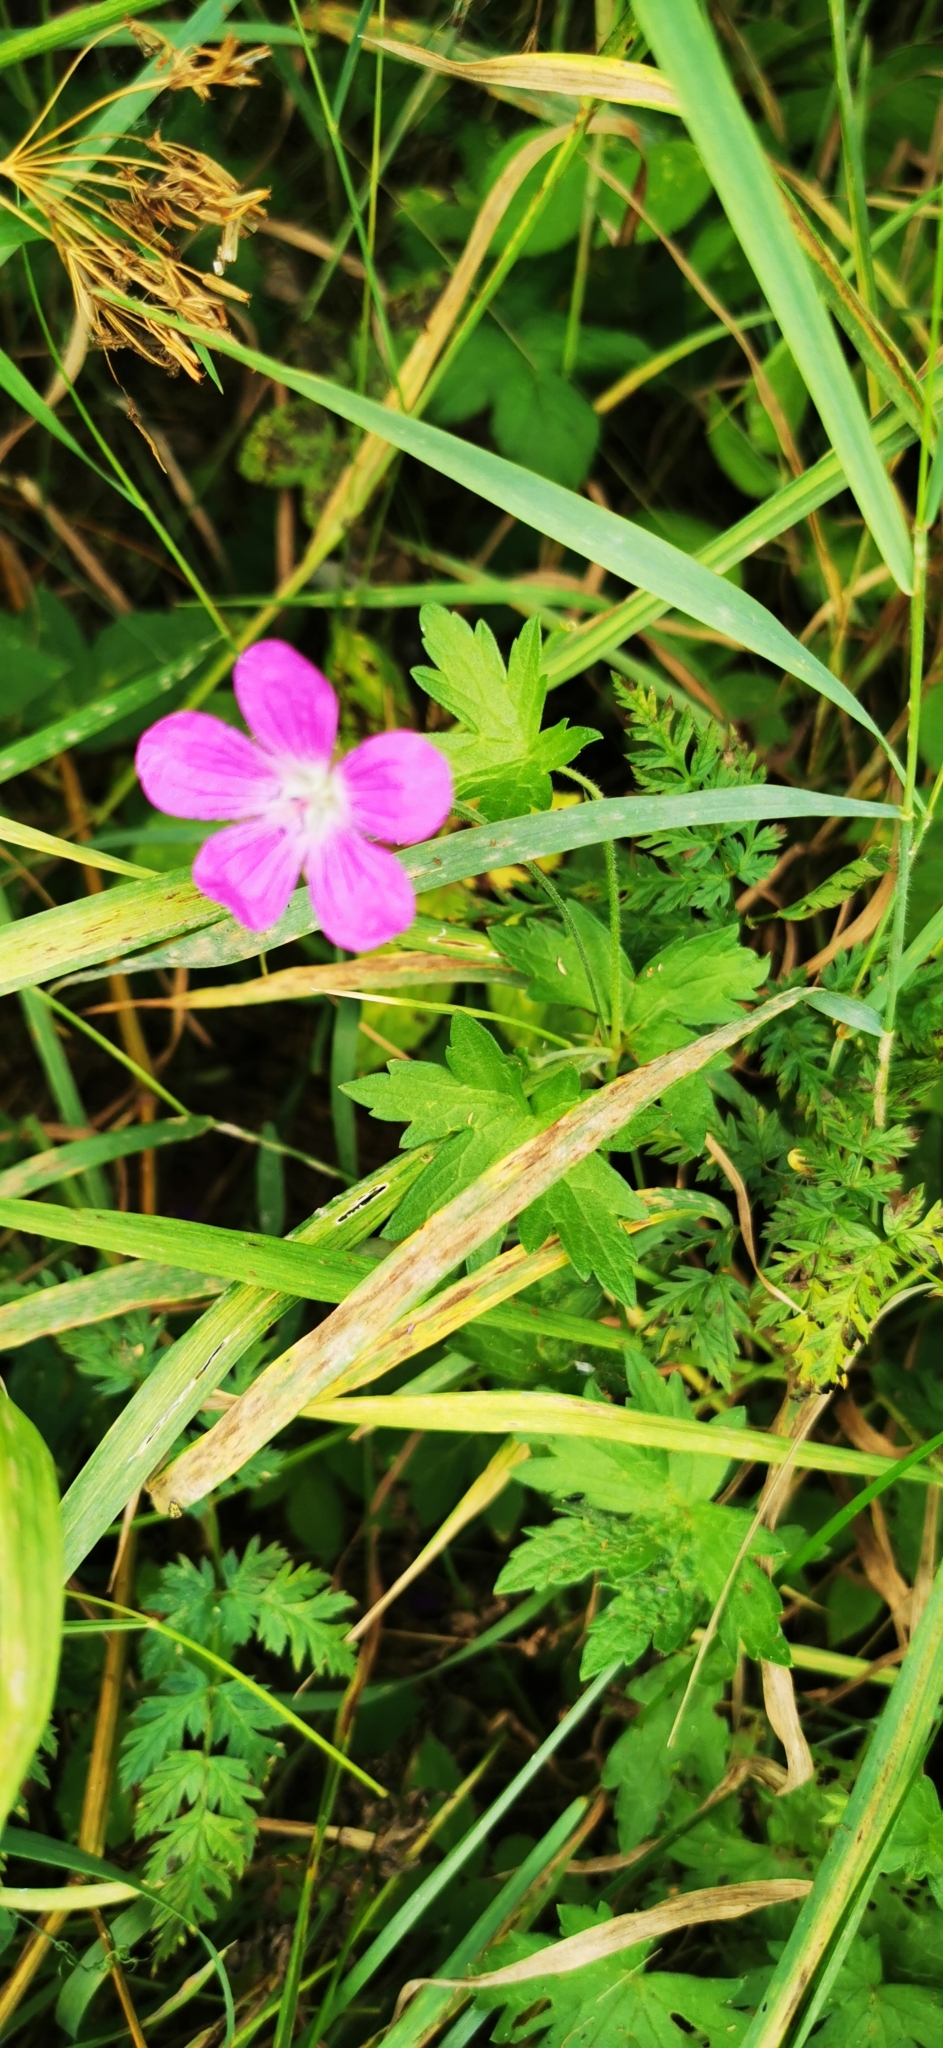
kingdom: Plantae
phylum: Tracheophyta
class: Magnoliopsida
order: Geraniales
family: Geraniaceae
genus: Geranium
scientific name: Geranium palustre
